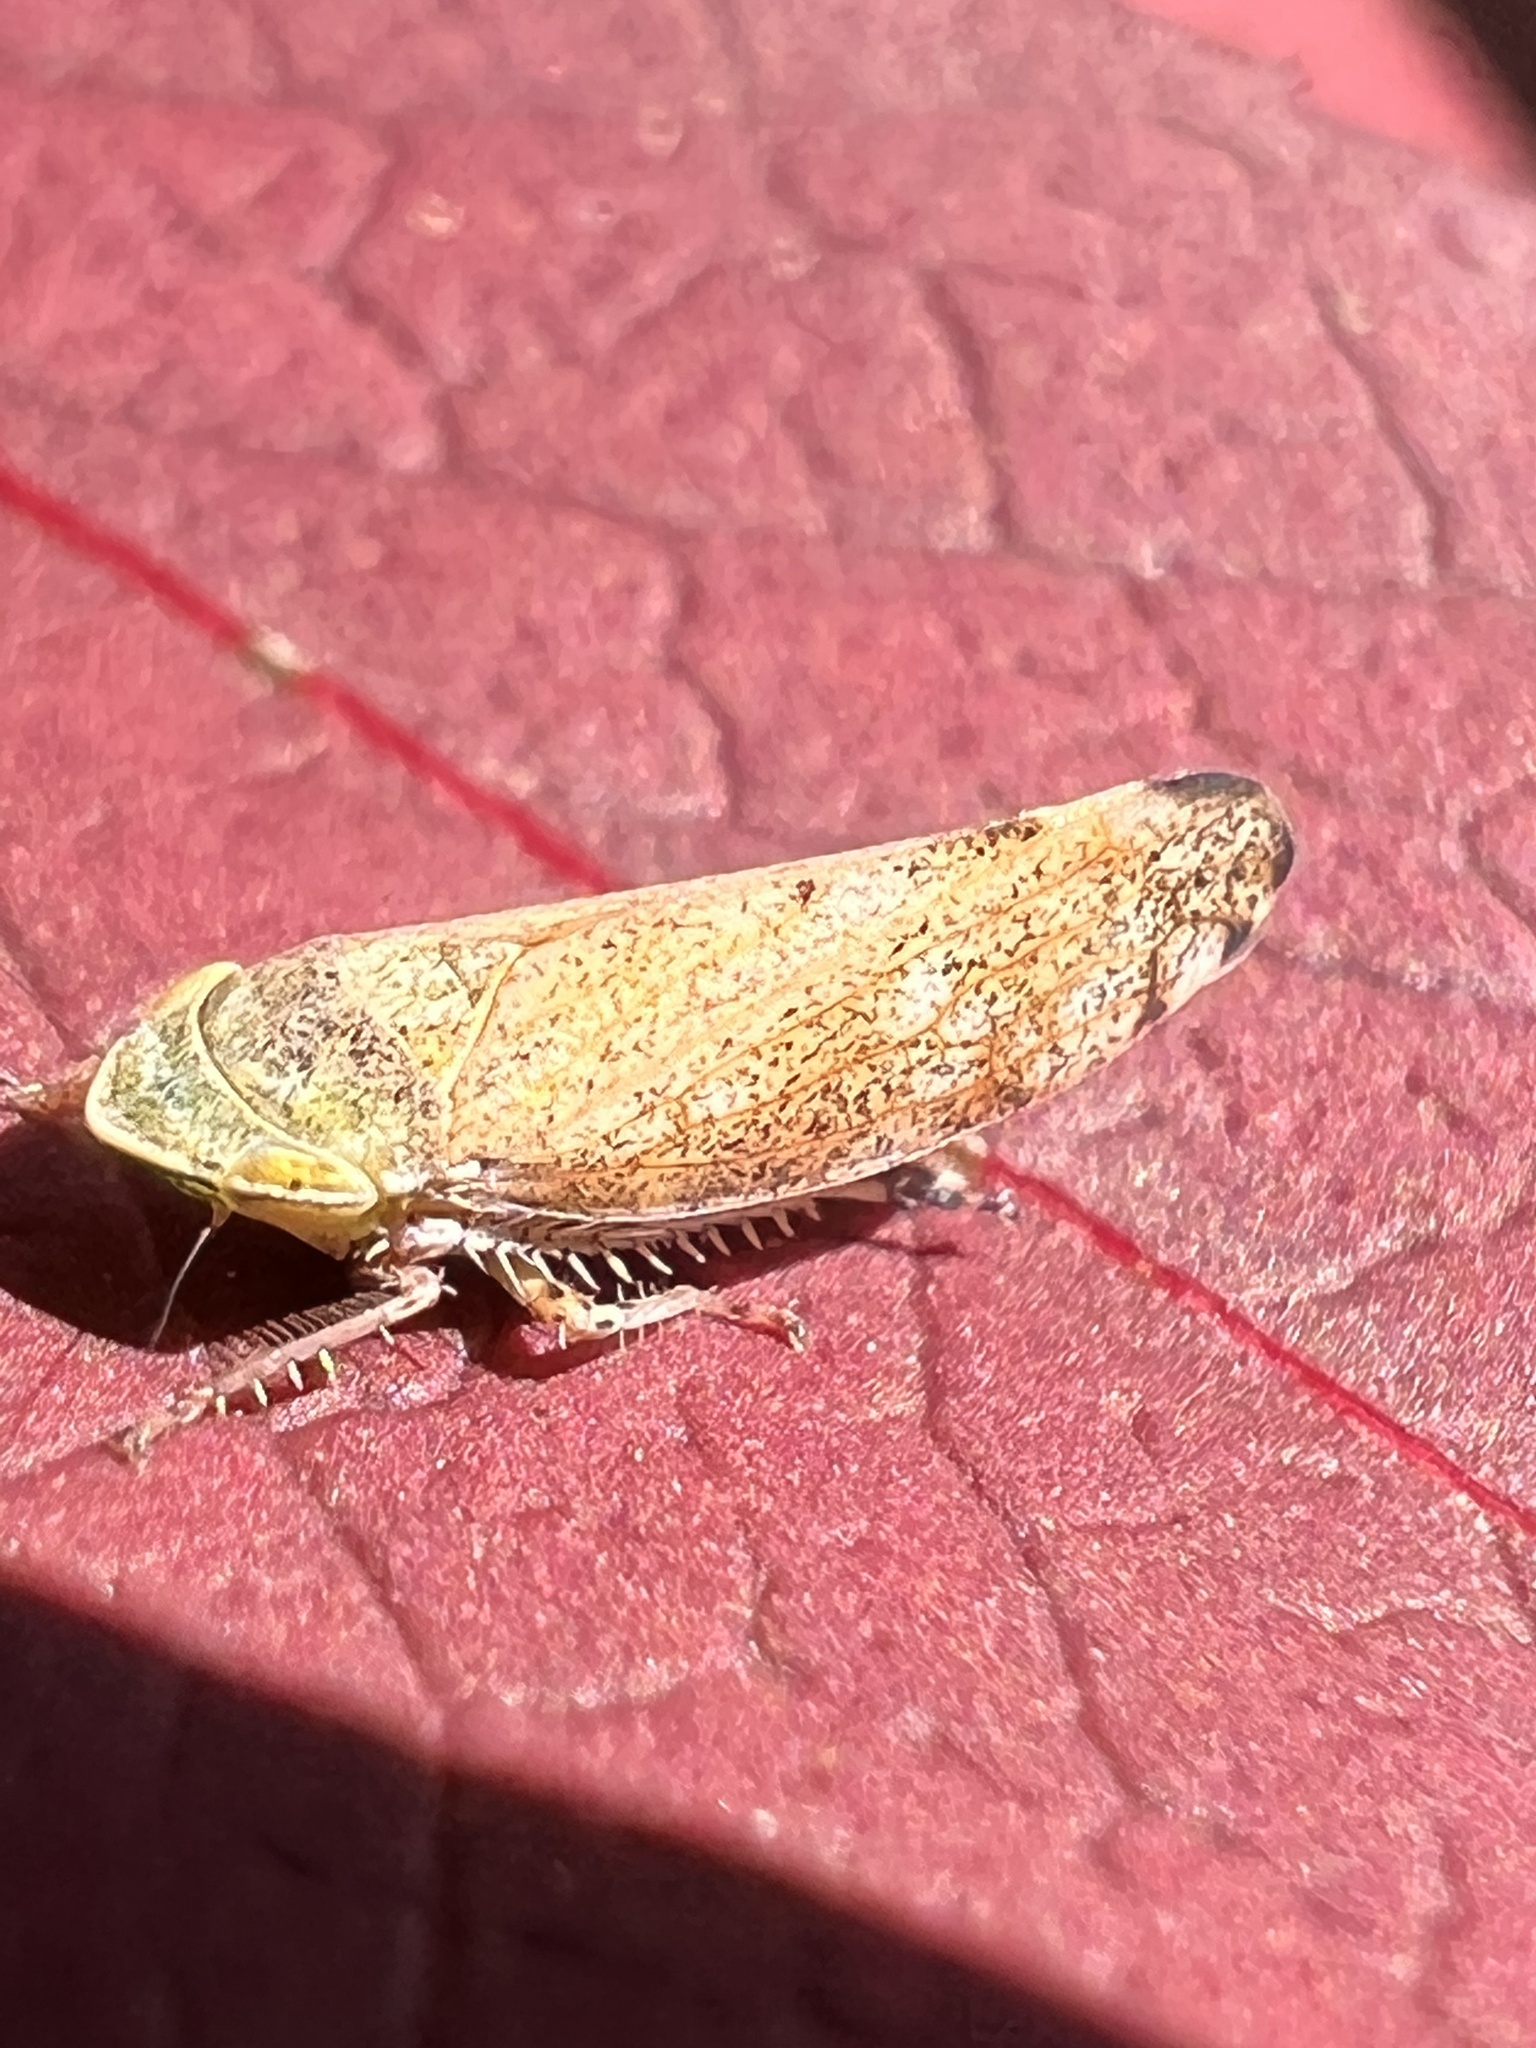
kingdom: Animalia
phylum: Arthropoda
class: Insecta
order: Hemiptera
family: Cicadellidae
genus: Fieberiella
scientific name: Fieberiella florii
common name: Flor’s leafhopper
